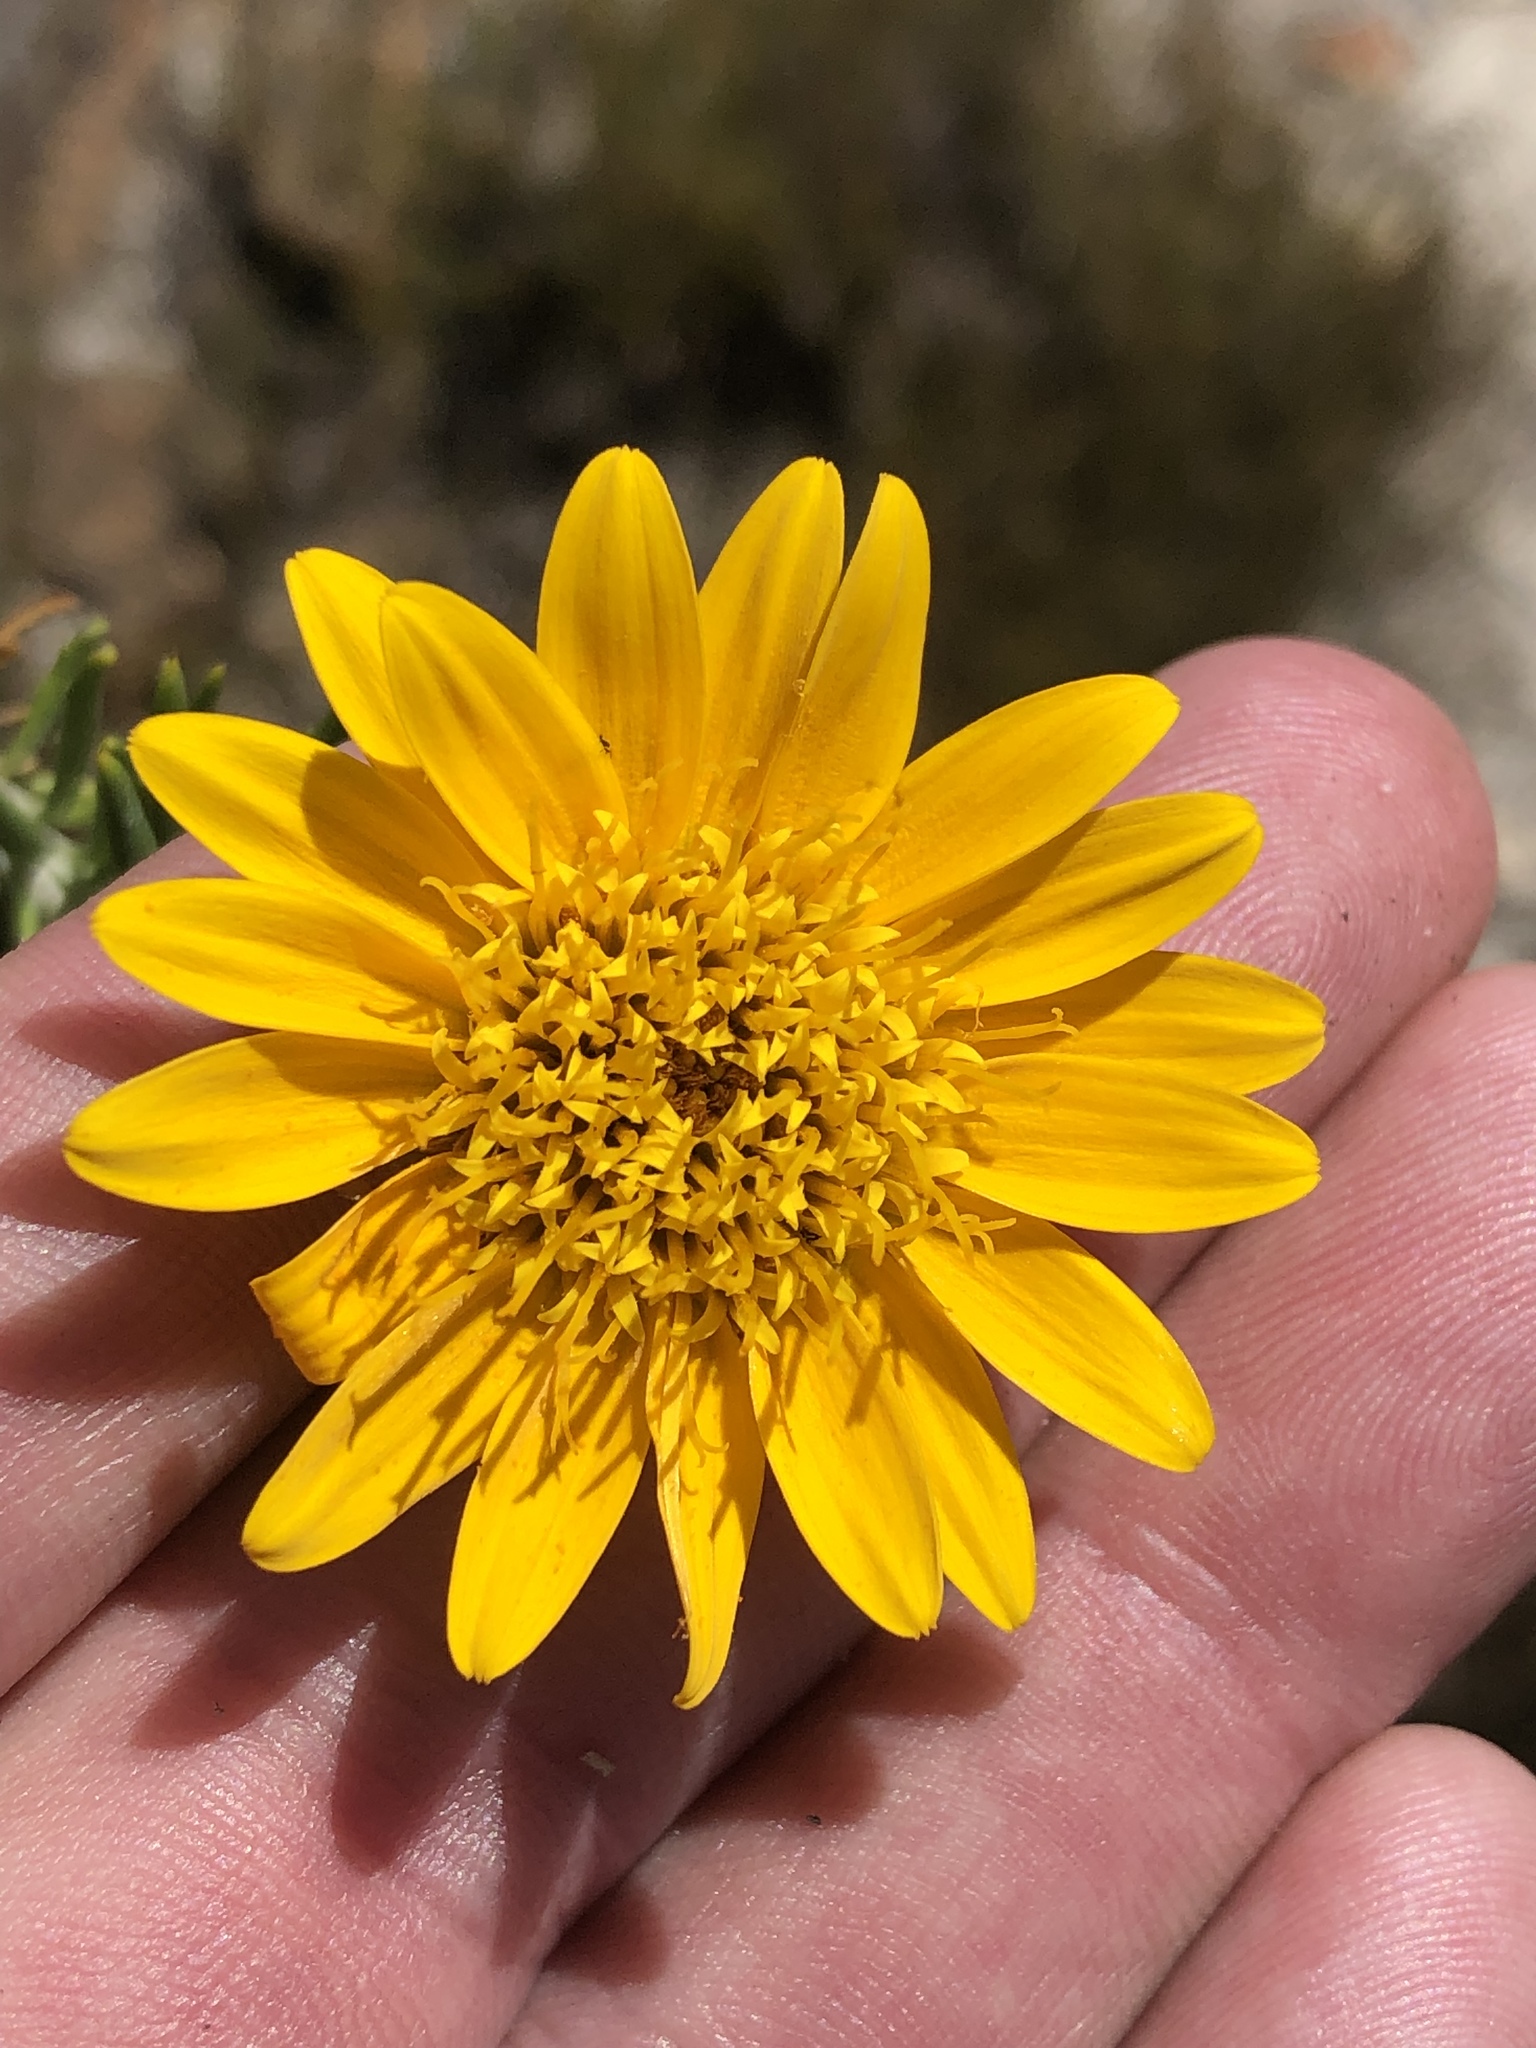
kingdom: Plantae
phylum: Tracheophyta
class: Magnoliopsida
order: Asterales
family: Asteraceae
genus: Heterolepis
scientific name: Heterolepis aliena
